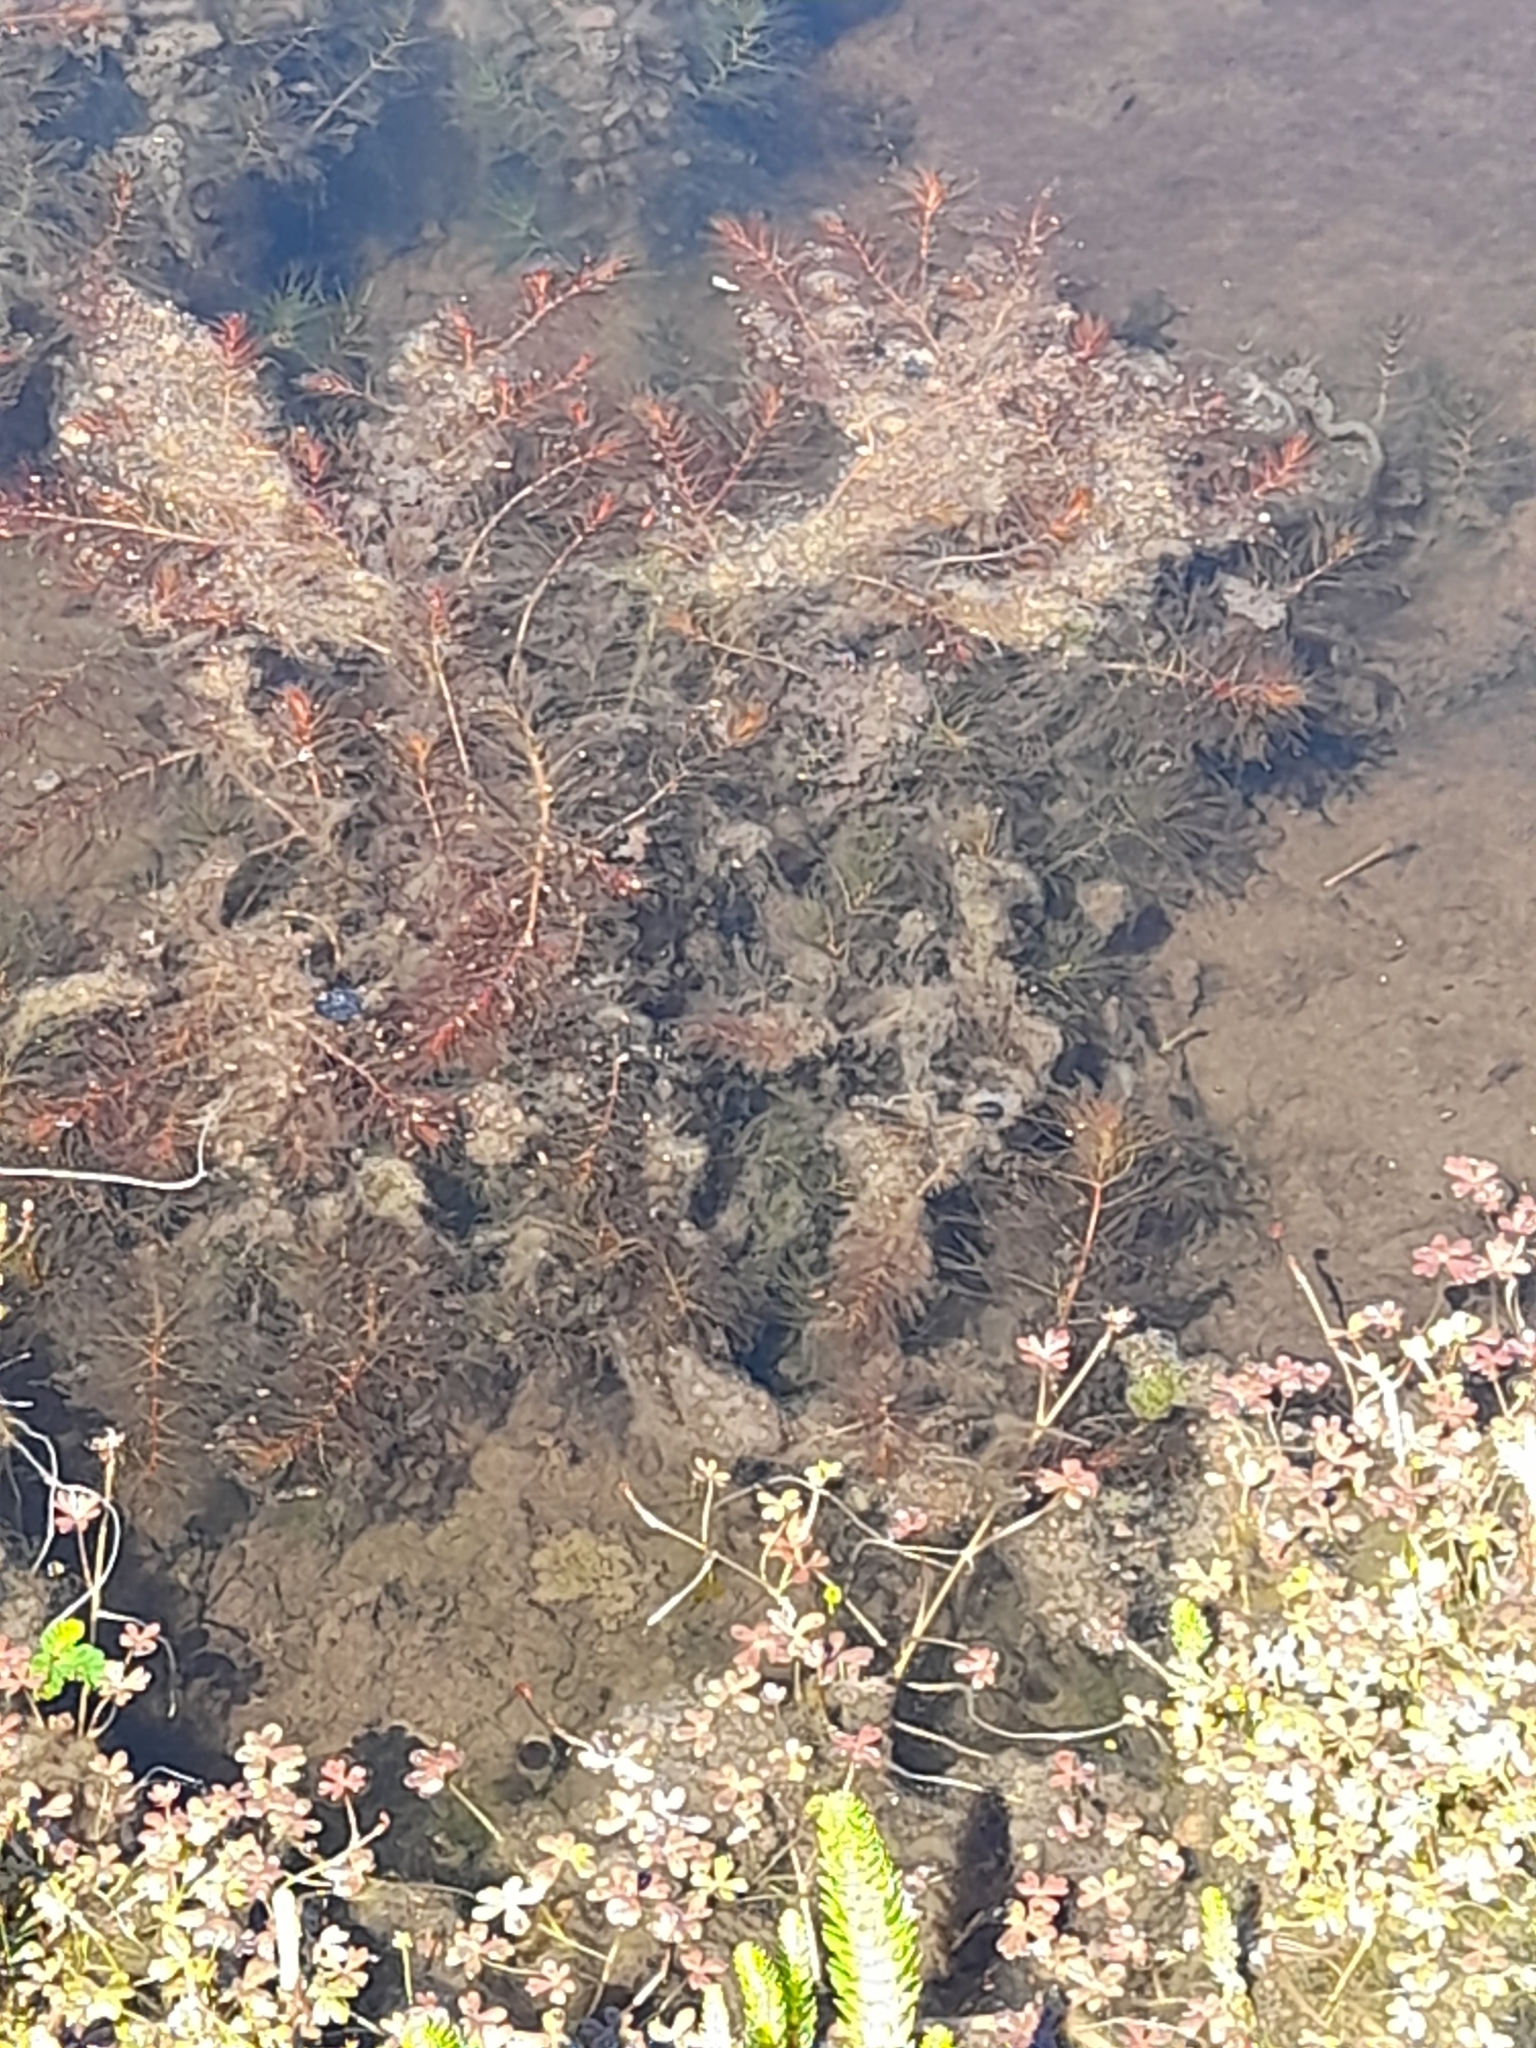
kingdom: Plantae
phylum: Tracheophyta
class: Magnoliopsida
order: Saxifragales
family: Haloragaceae
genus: Myriophyllum
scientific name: Myriophyllum quitense
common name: Andean water milfoil
